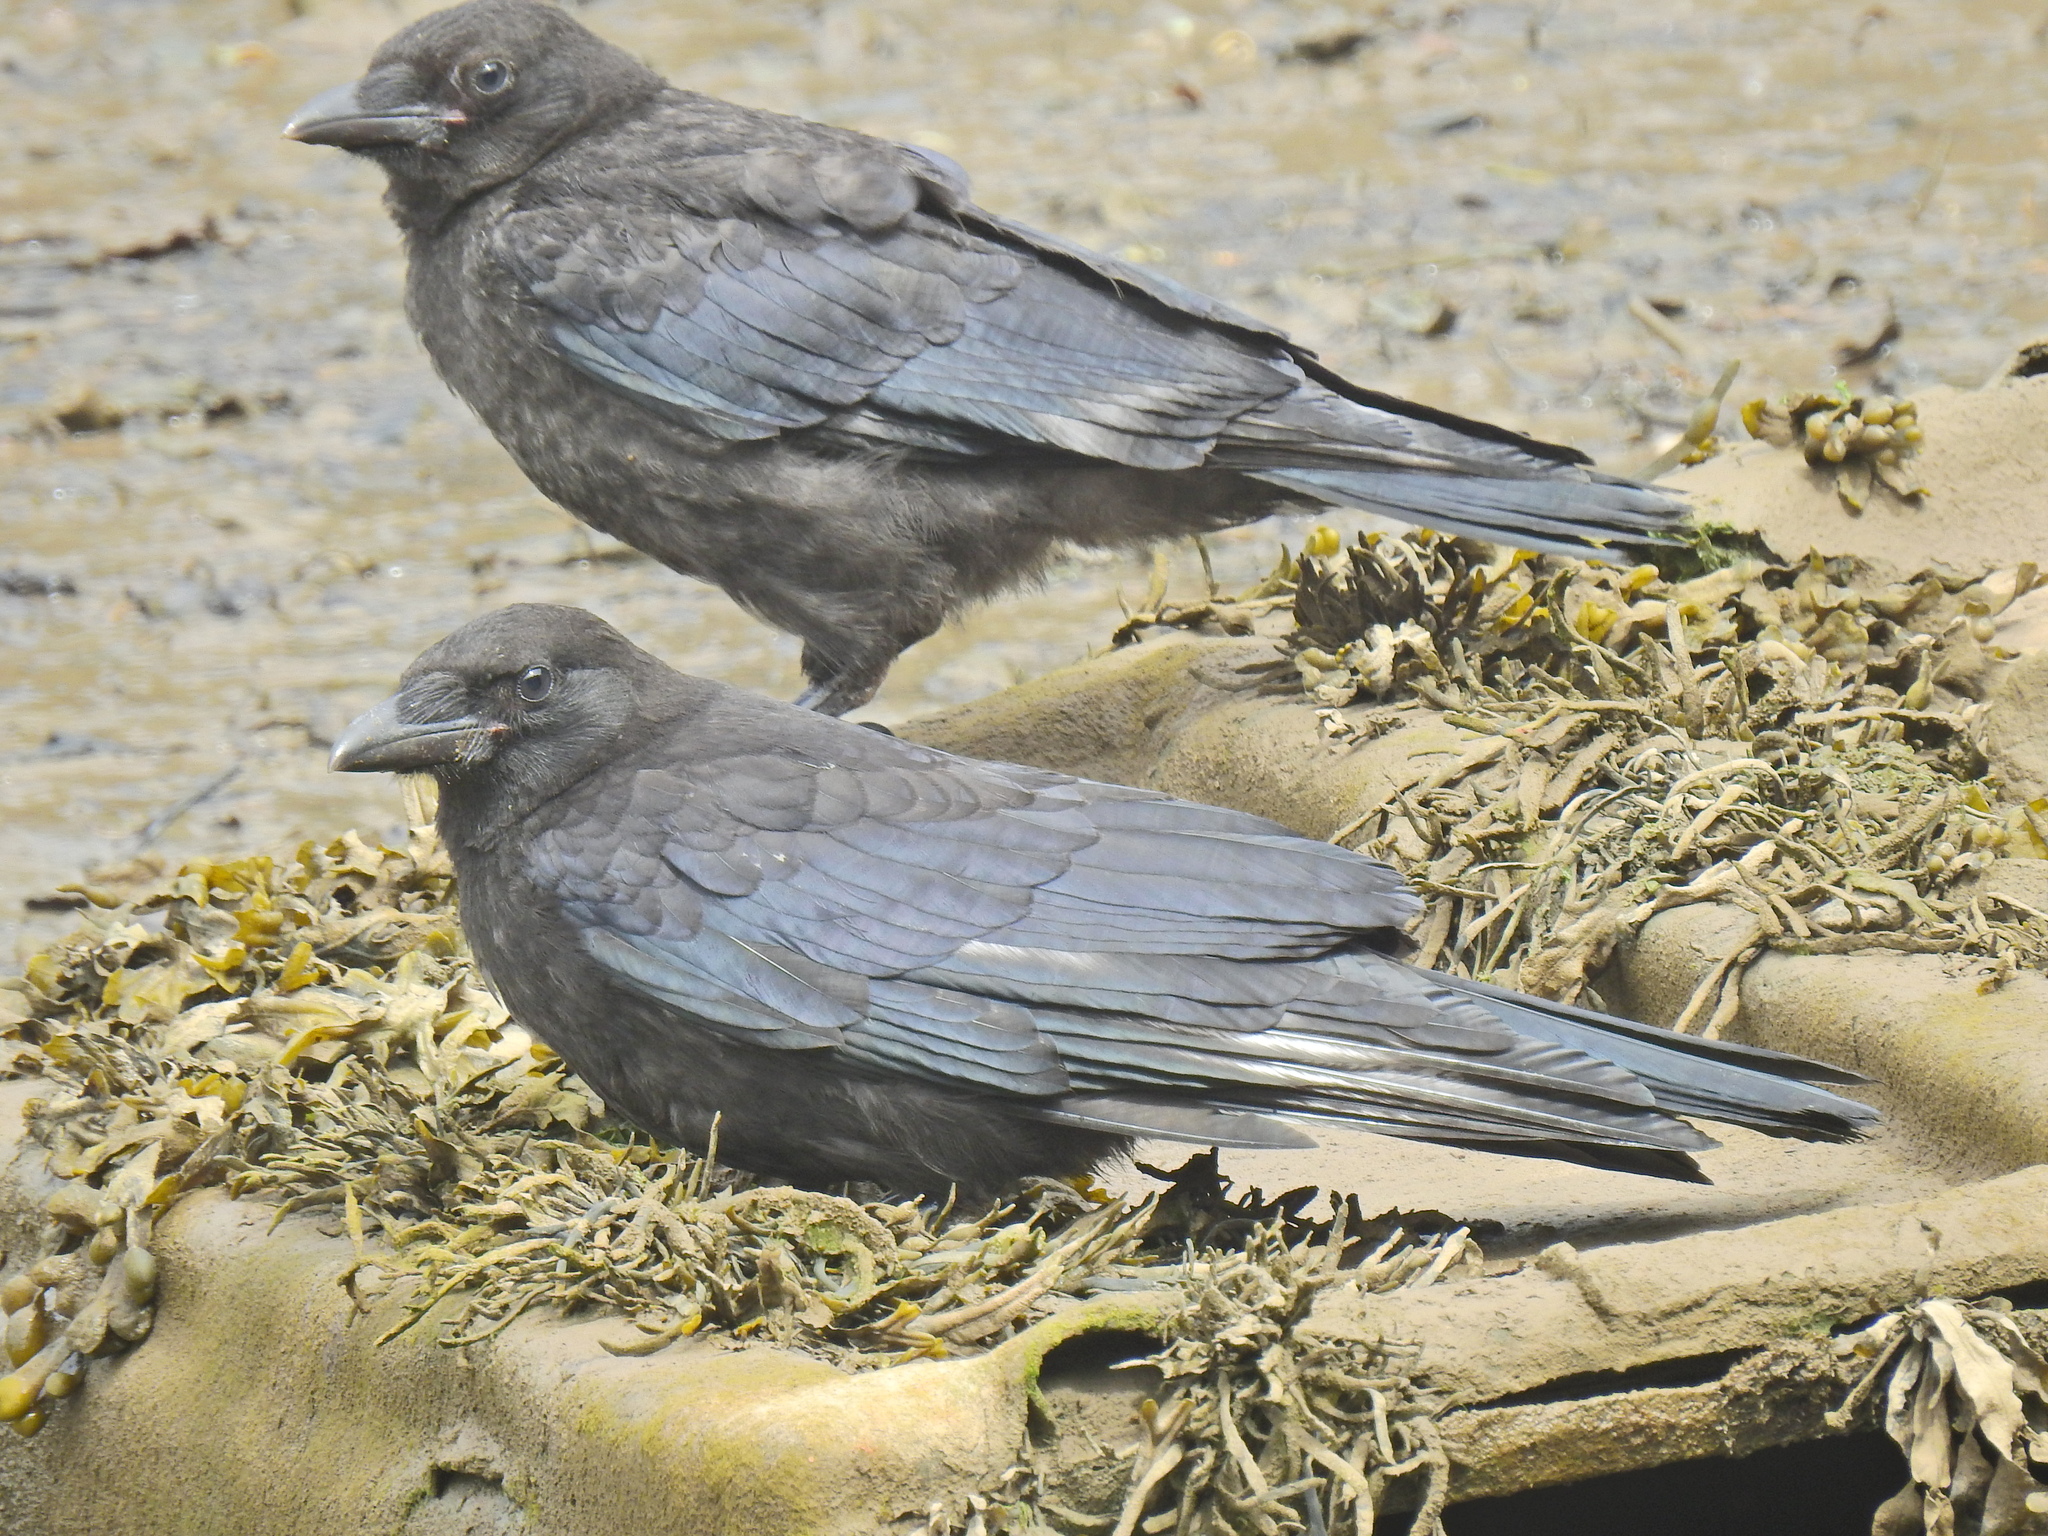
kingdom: Animalia
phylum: Chordata
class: Aves
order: Passeriformes
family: Corvidae
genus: Corvus
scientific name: Corvus corone
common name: Carrion crow
